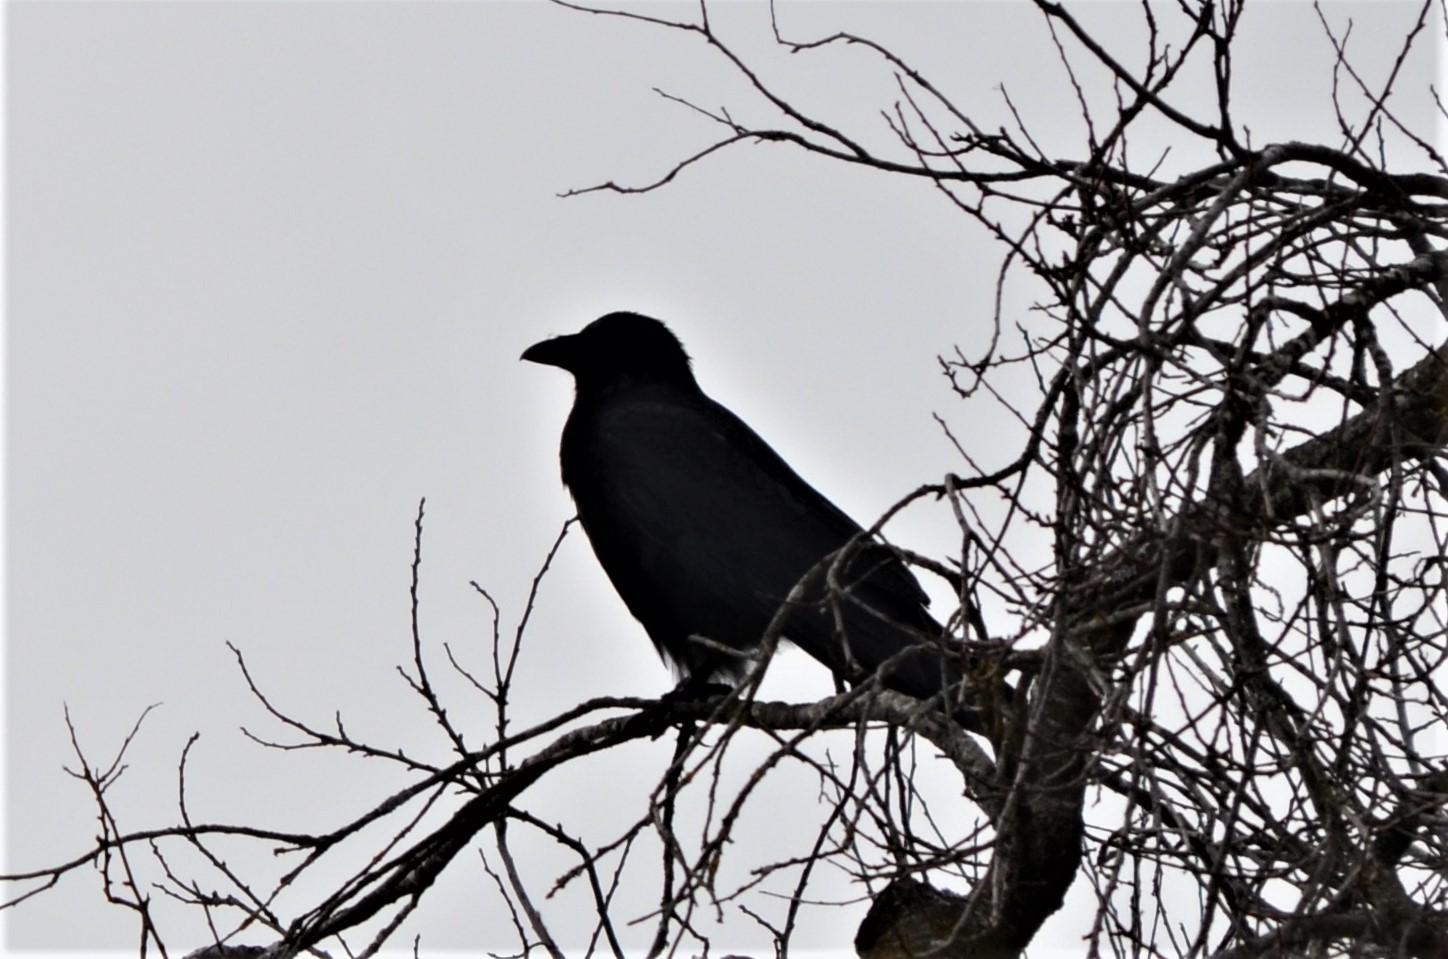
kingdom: Animalia
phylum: Chordata
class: Aves
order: Passeriformes
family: Corvidae
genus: Corvus
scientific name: Corvus corone
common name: Carrion crow
